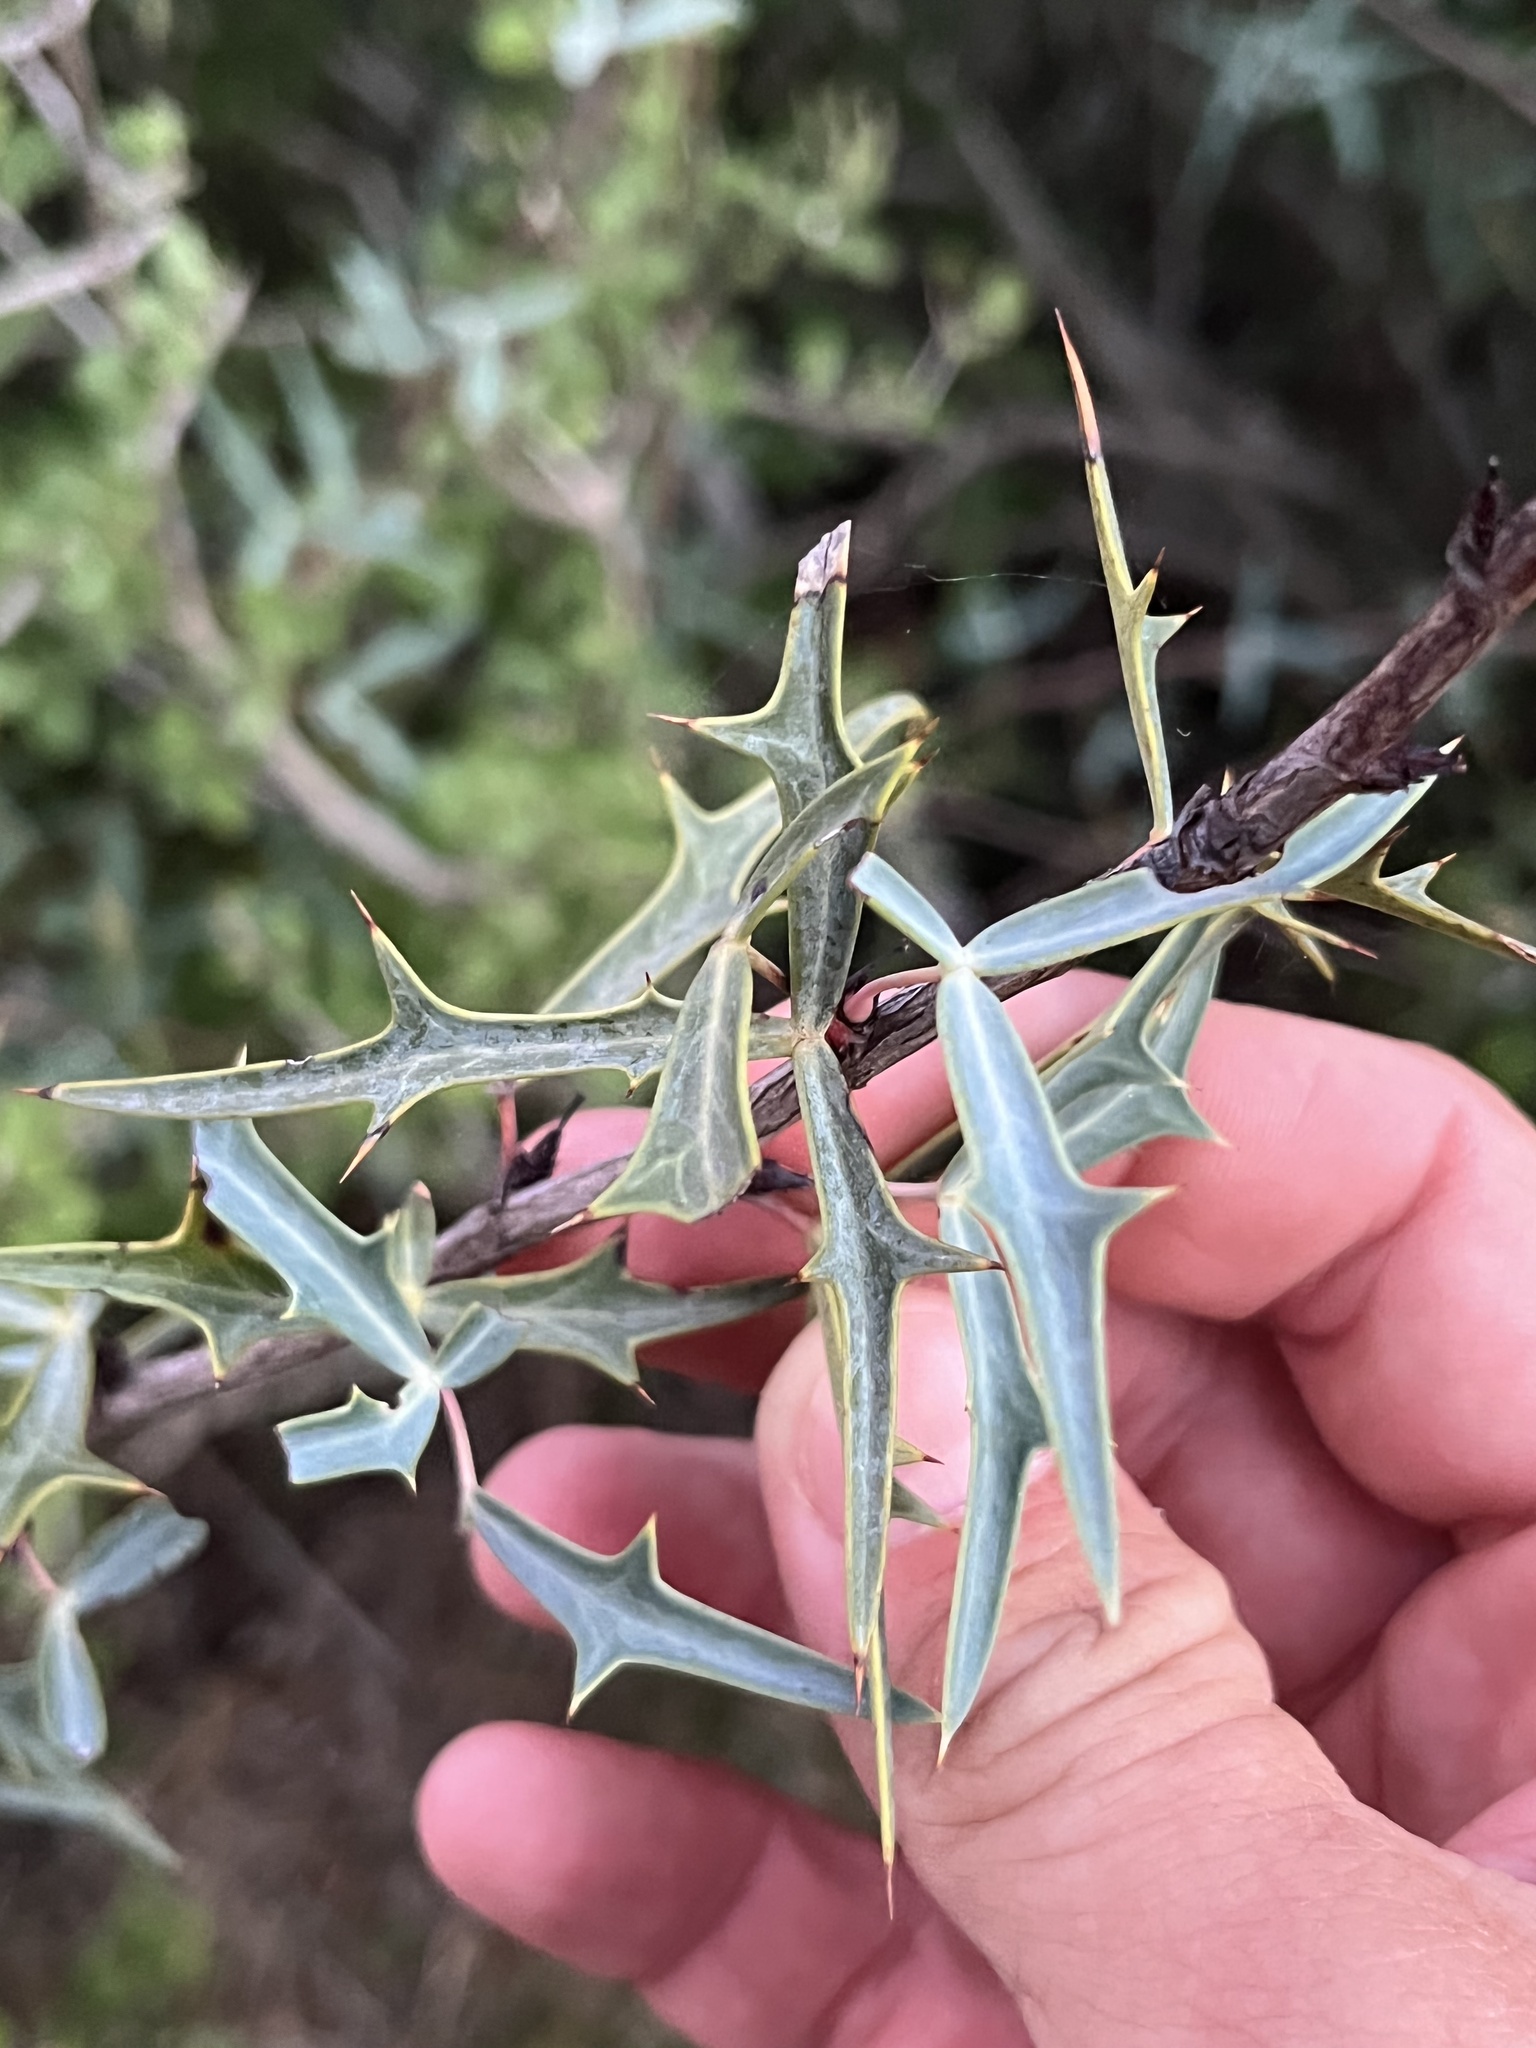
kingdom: Plantae
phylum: Tracheophyta
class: Magnoliopsida
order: Ranunculales
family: Berberidaceae
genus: Alloberberis
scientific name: Alloberberis trifoliolata
